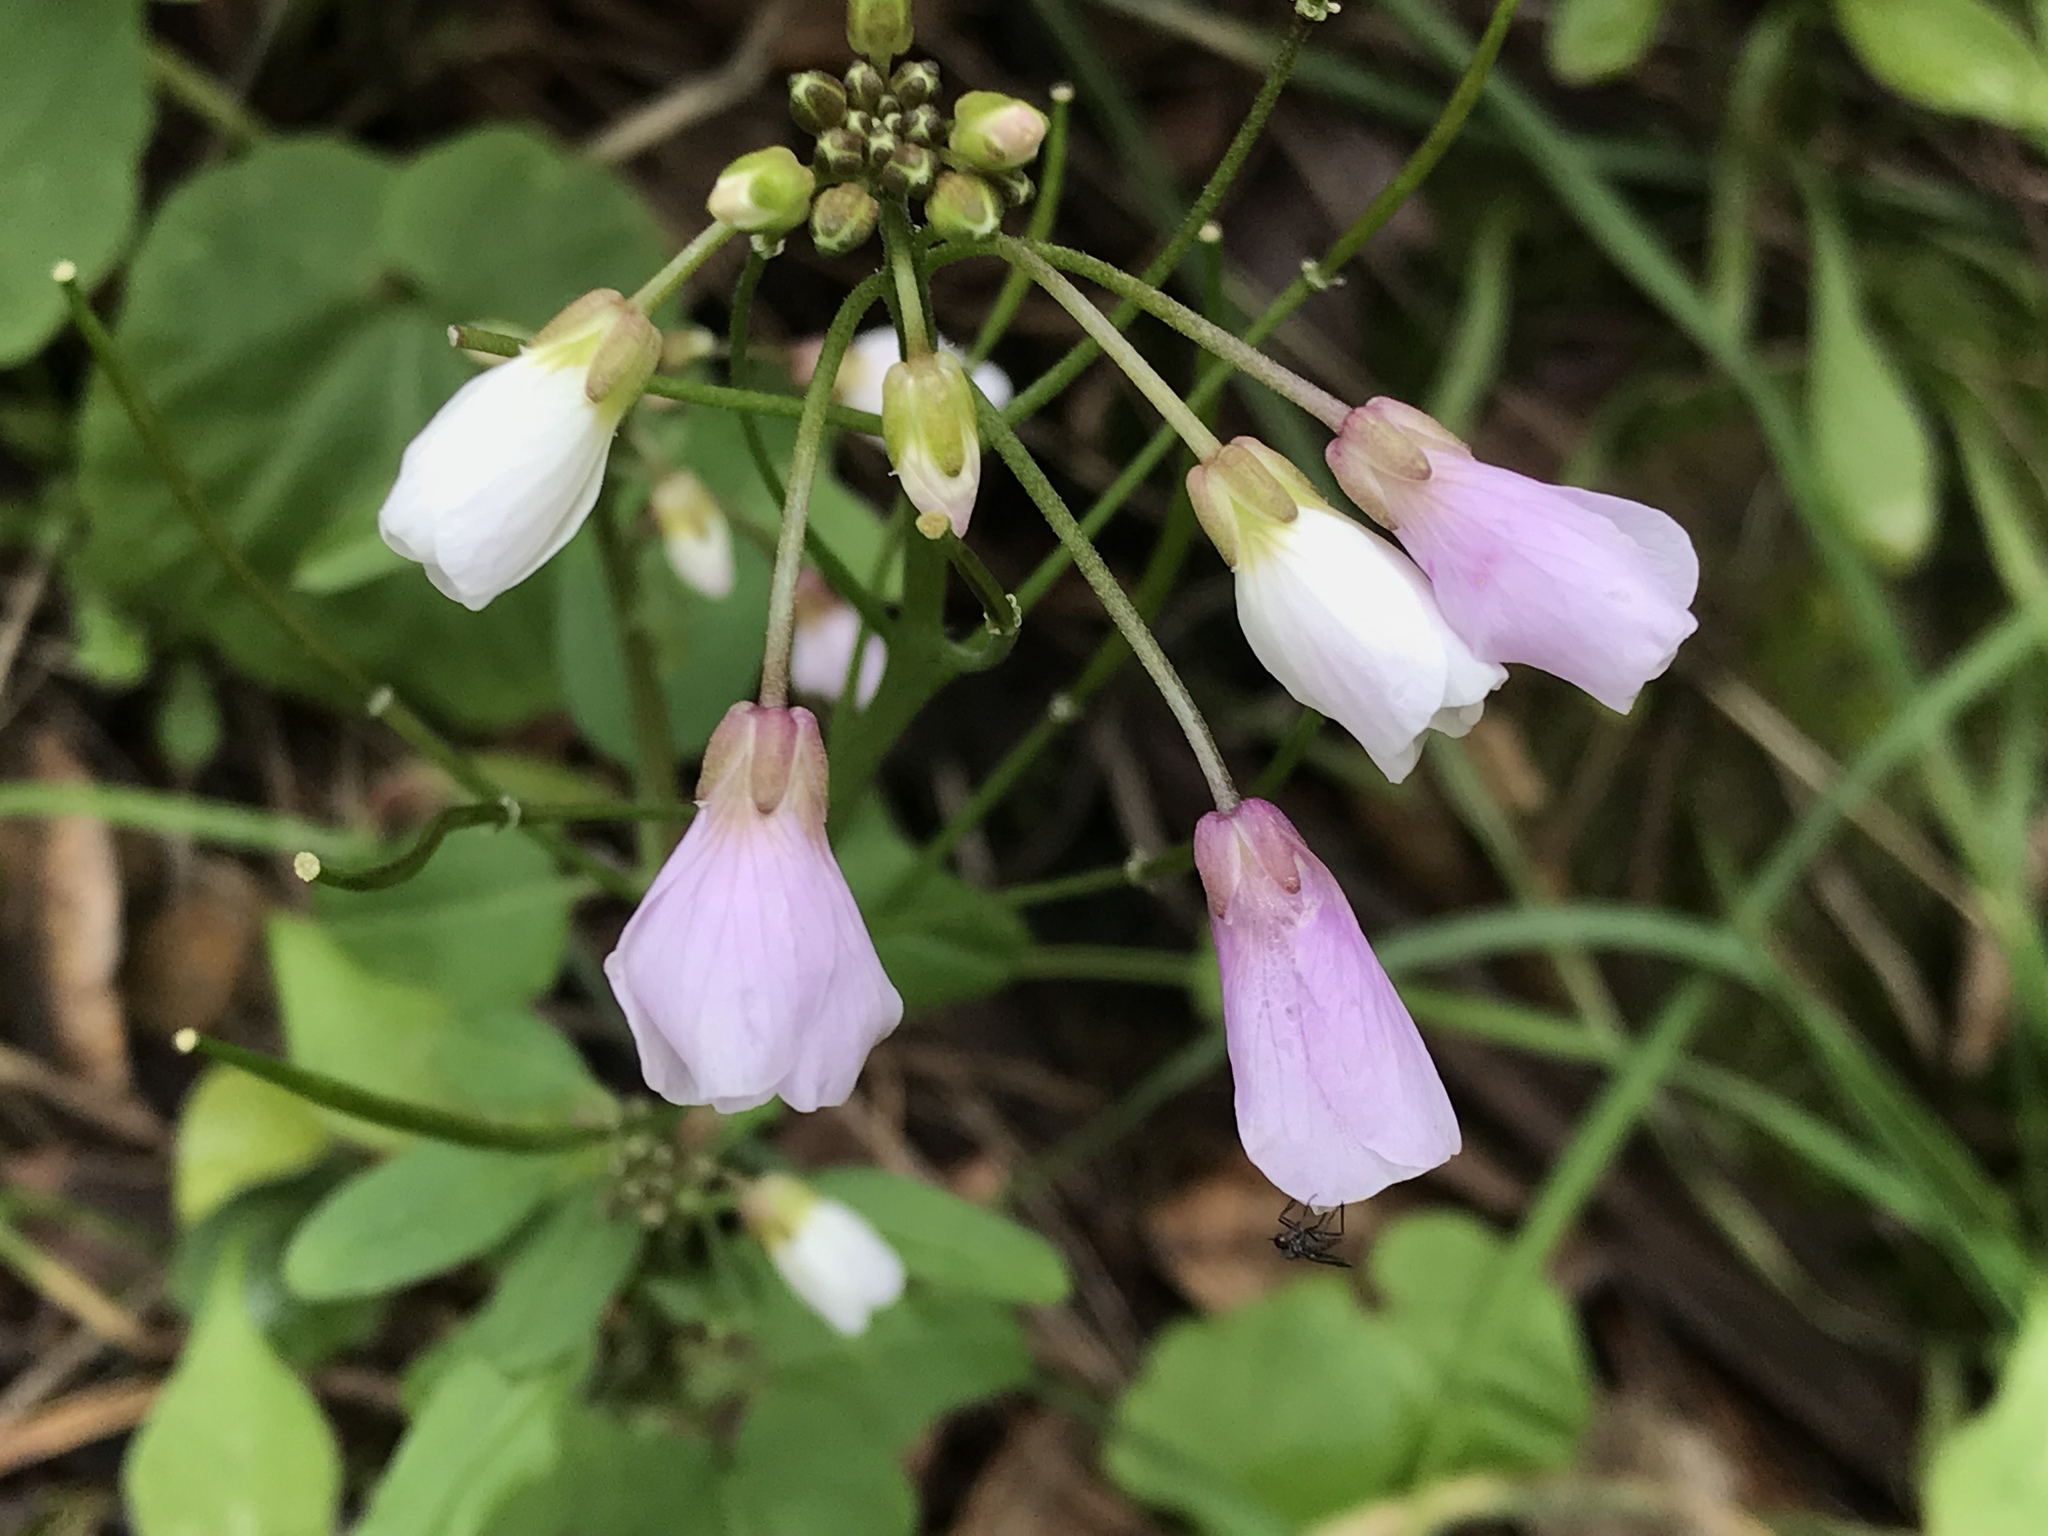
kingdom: Plantae
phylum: Tracheophyta
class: Magnoliopsida
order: Brassicales
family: Brassicaceae
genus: Cardamine
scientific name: Cardamine californica
